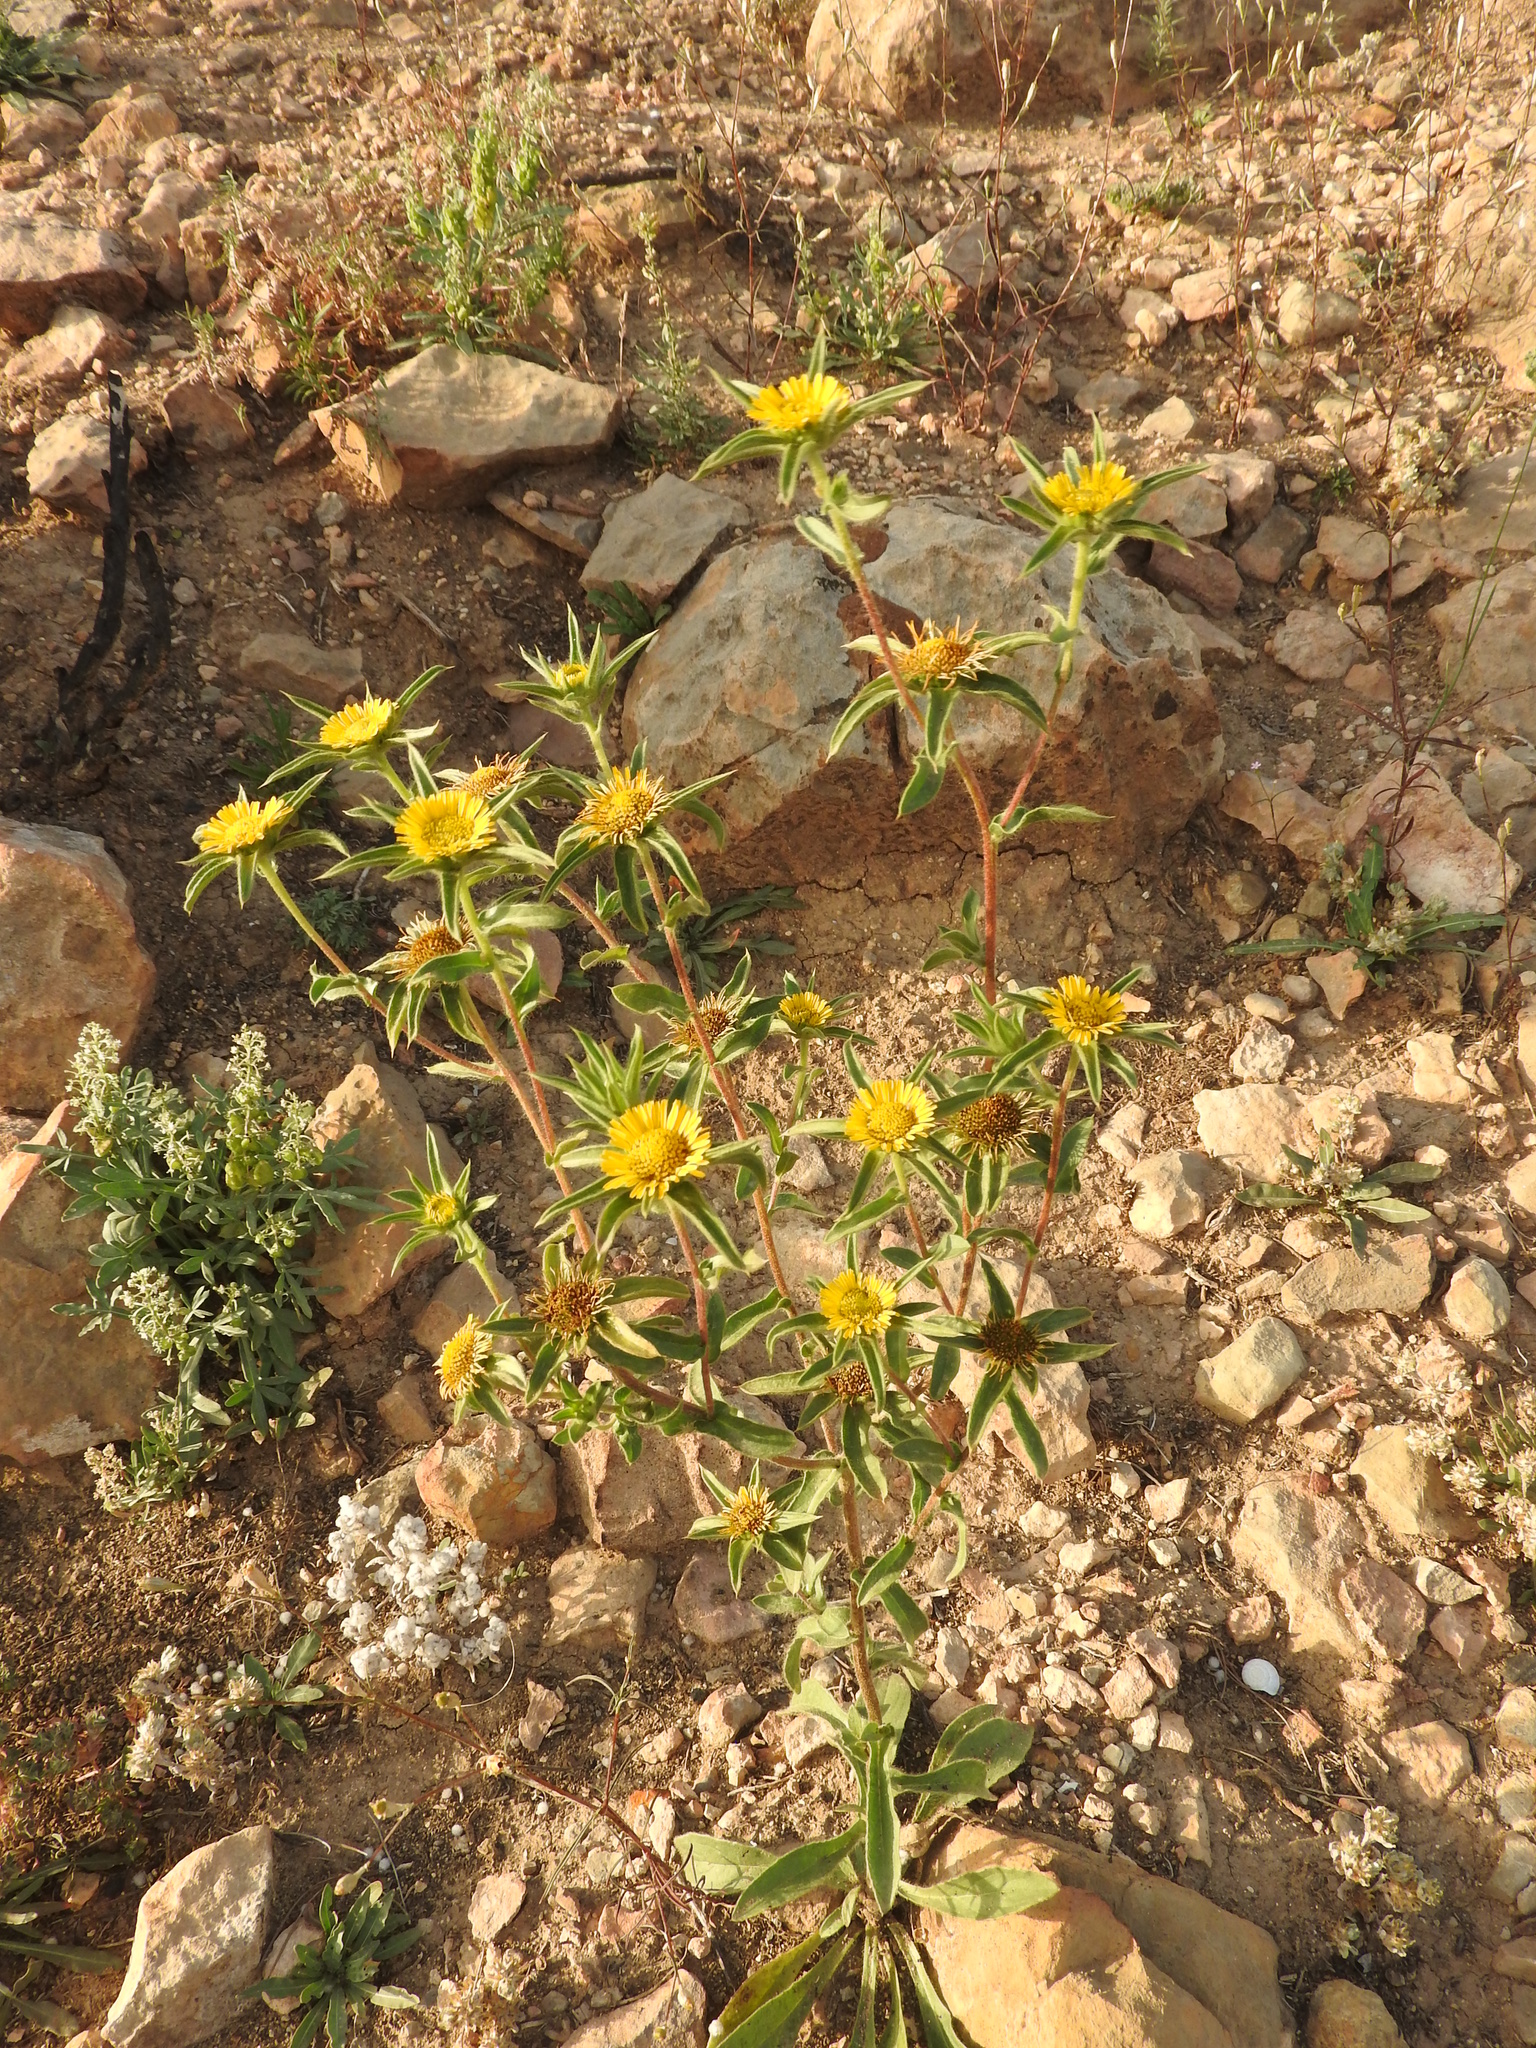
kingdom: Plantae
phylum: Tracheophyta
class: Magnoliopsida
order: Asterales
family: Asteraceae
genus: Pallenis
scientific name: Pallenis spinosa
